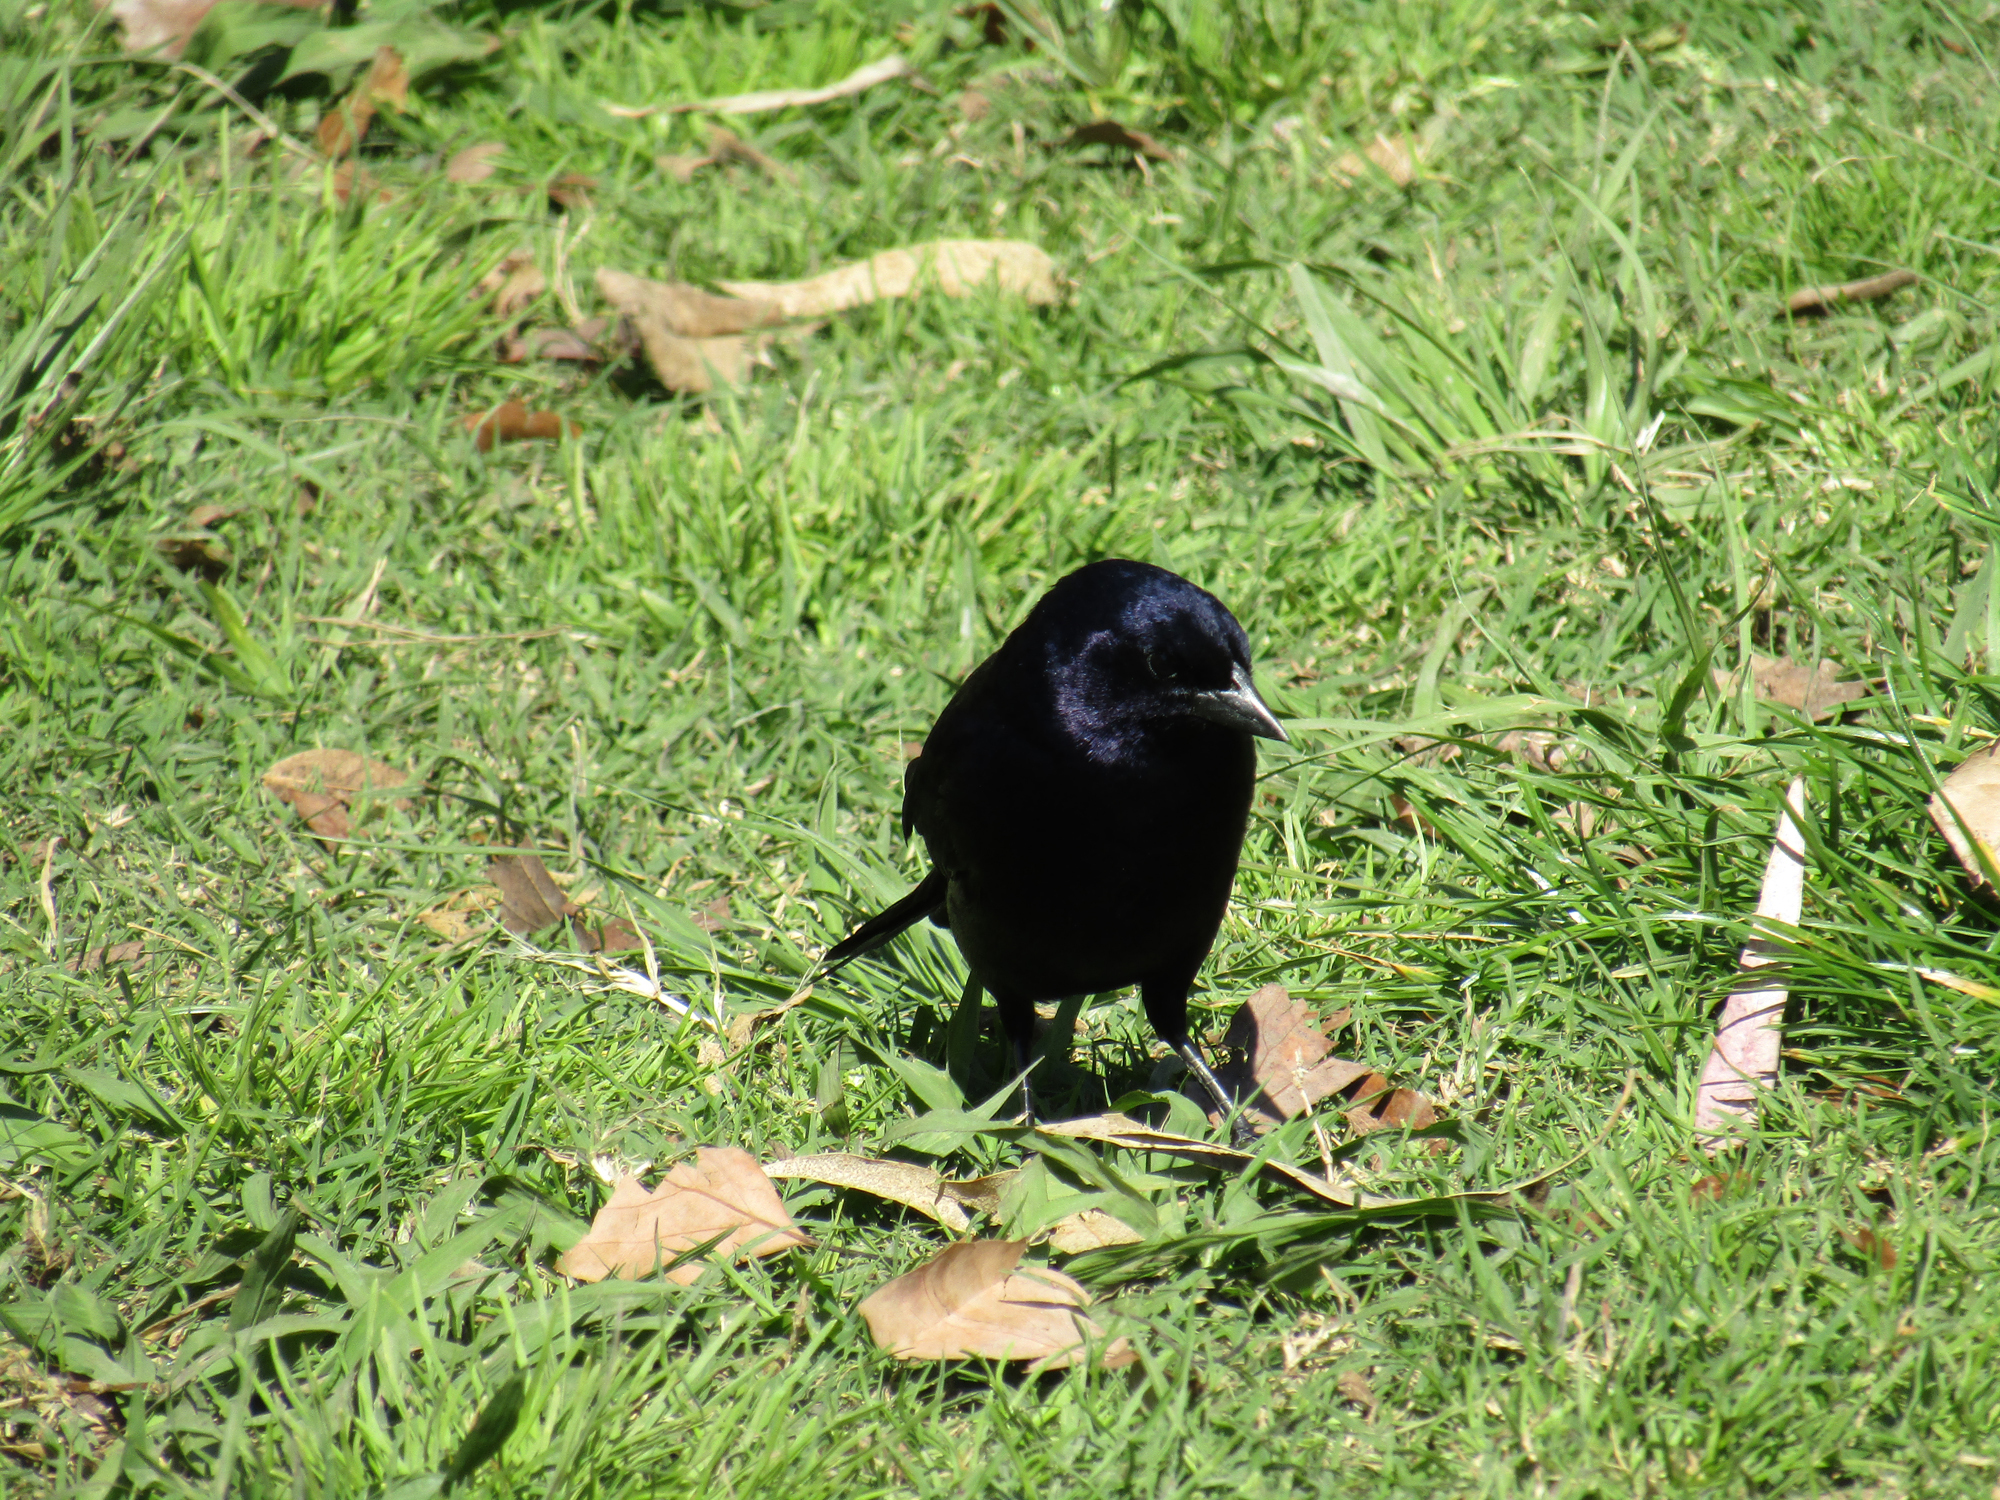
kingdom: Animalia
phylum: Chordata
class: Aves
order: Passeriformes
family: Icteridae
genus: Molothrus
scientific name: Molothrus bonariensis
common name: Shiny cowbird
